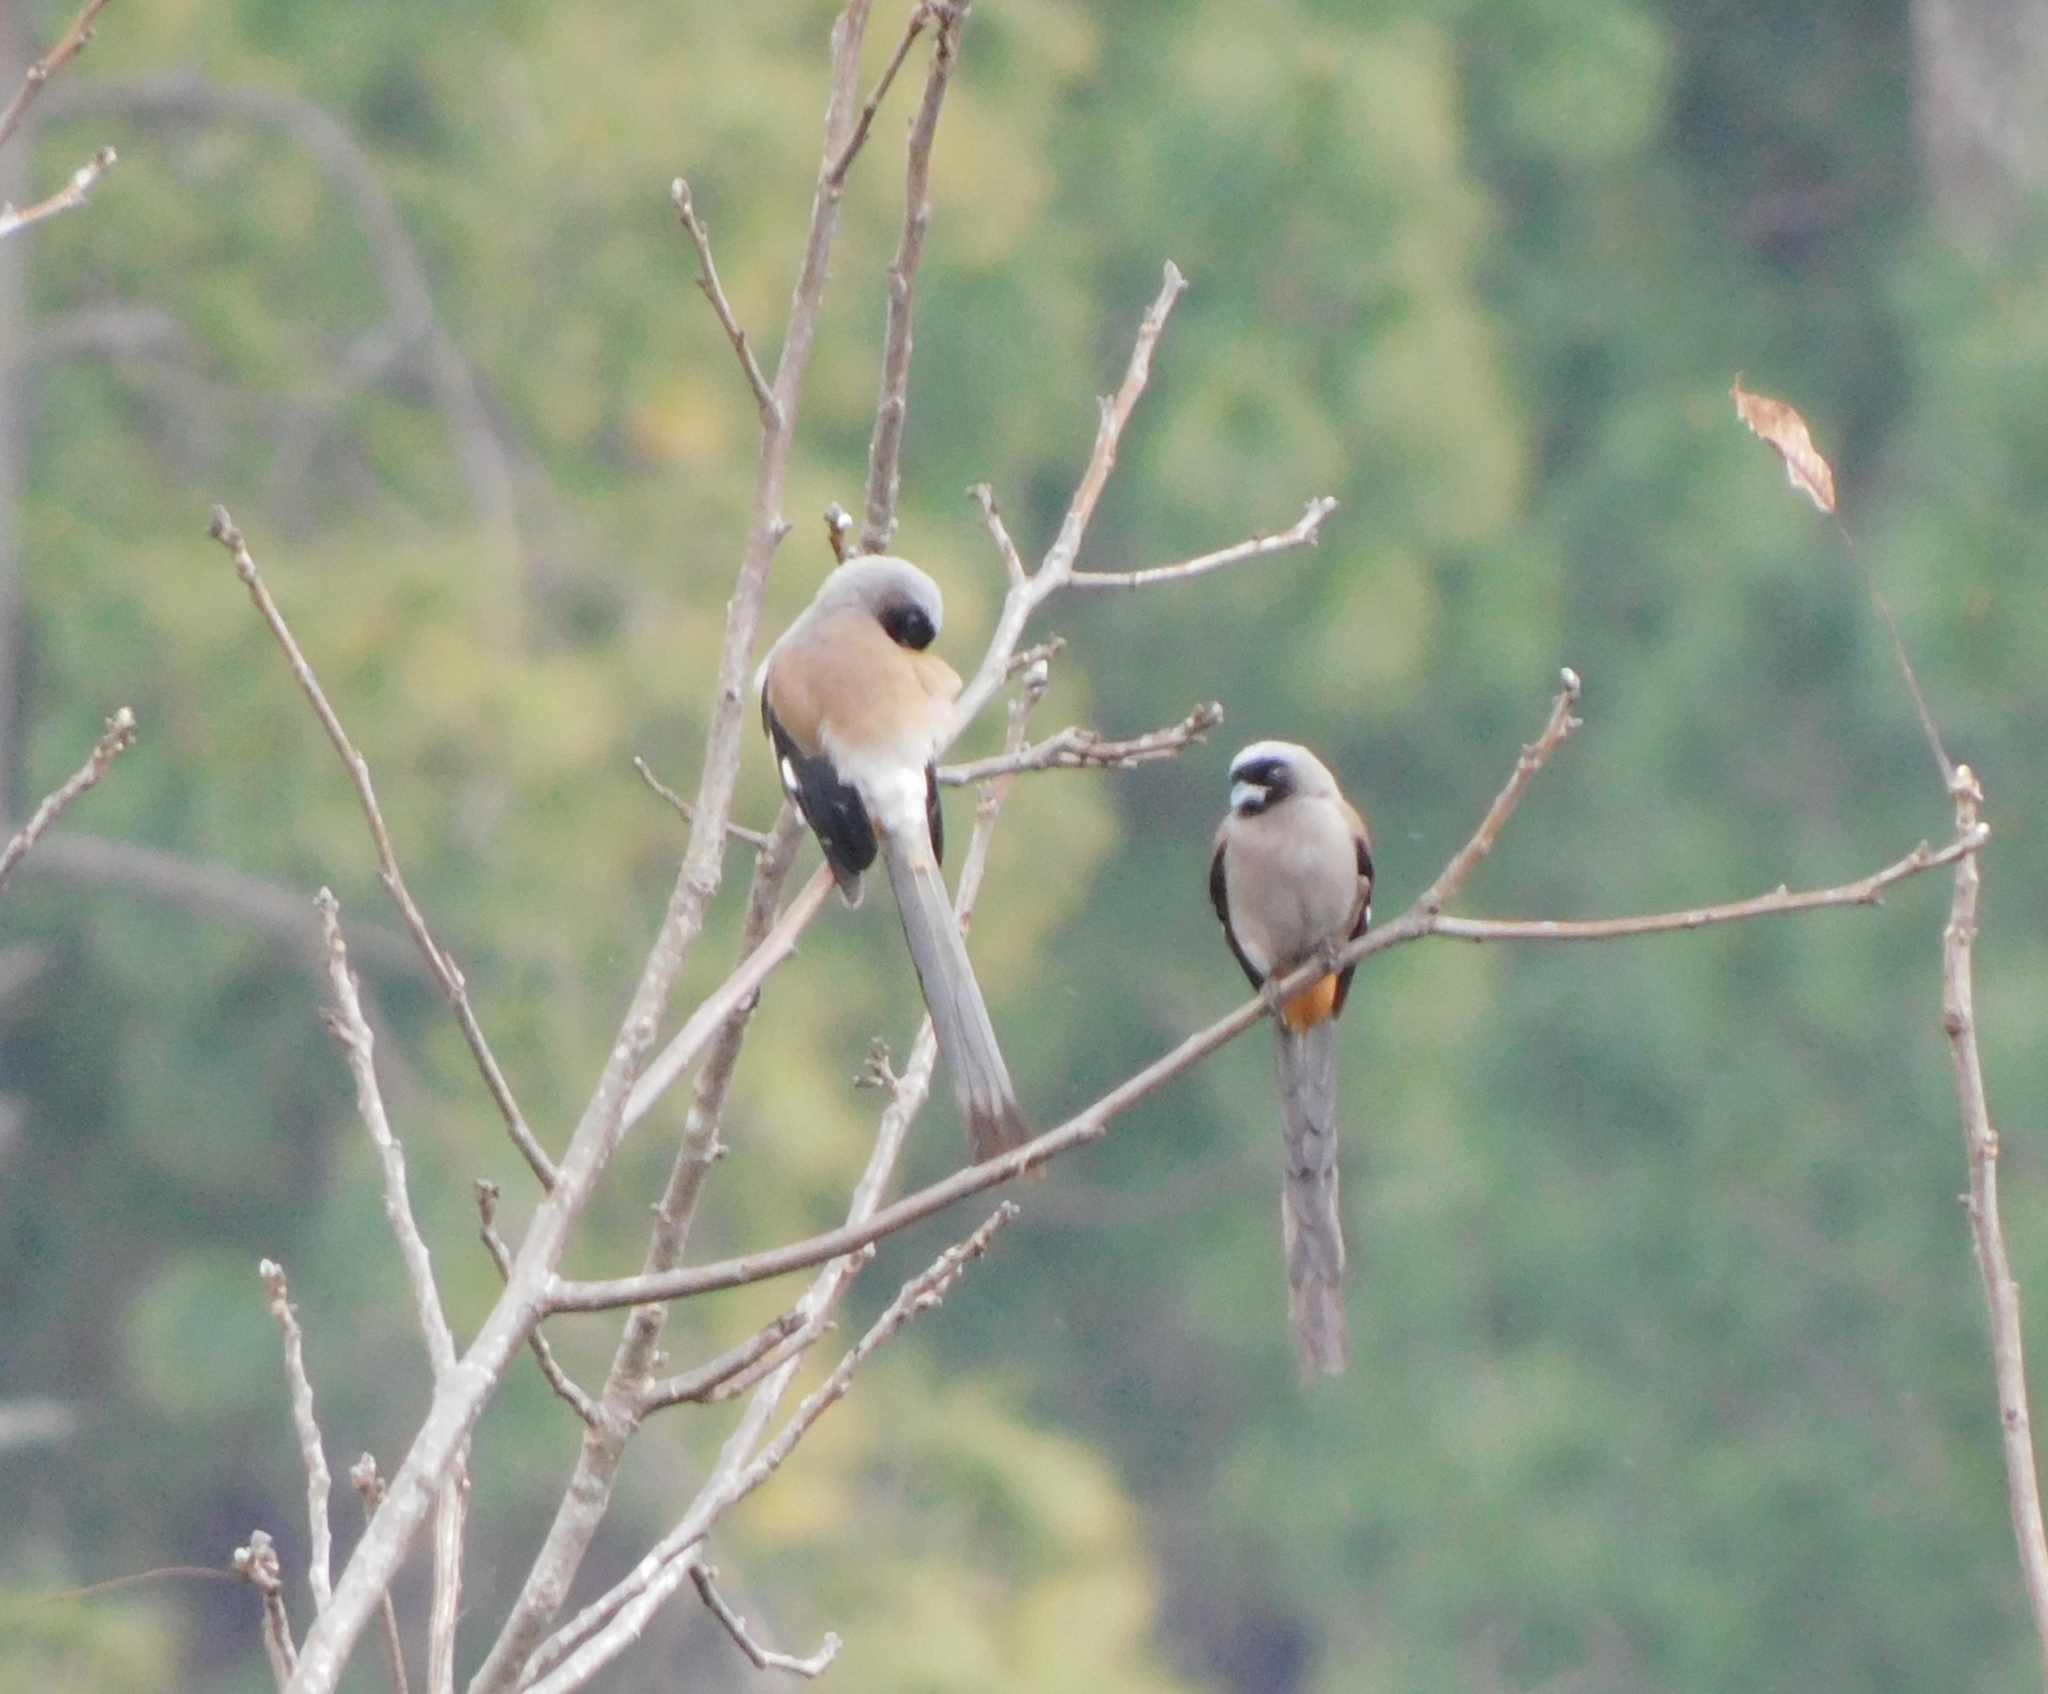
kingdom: Animalia
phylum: Chordata
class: Aves
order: Passeriformes
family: Corvidae
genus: Dendrocitta
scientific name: Dendrocitta formosae
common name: Grey treepie
